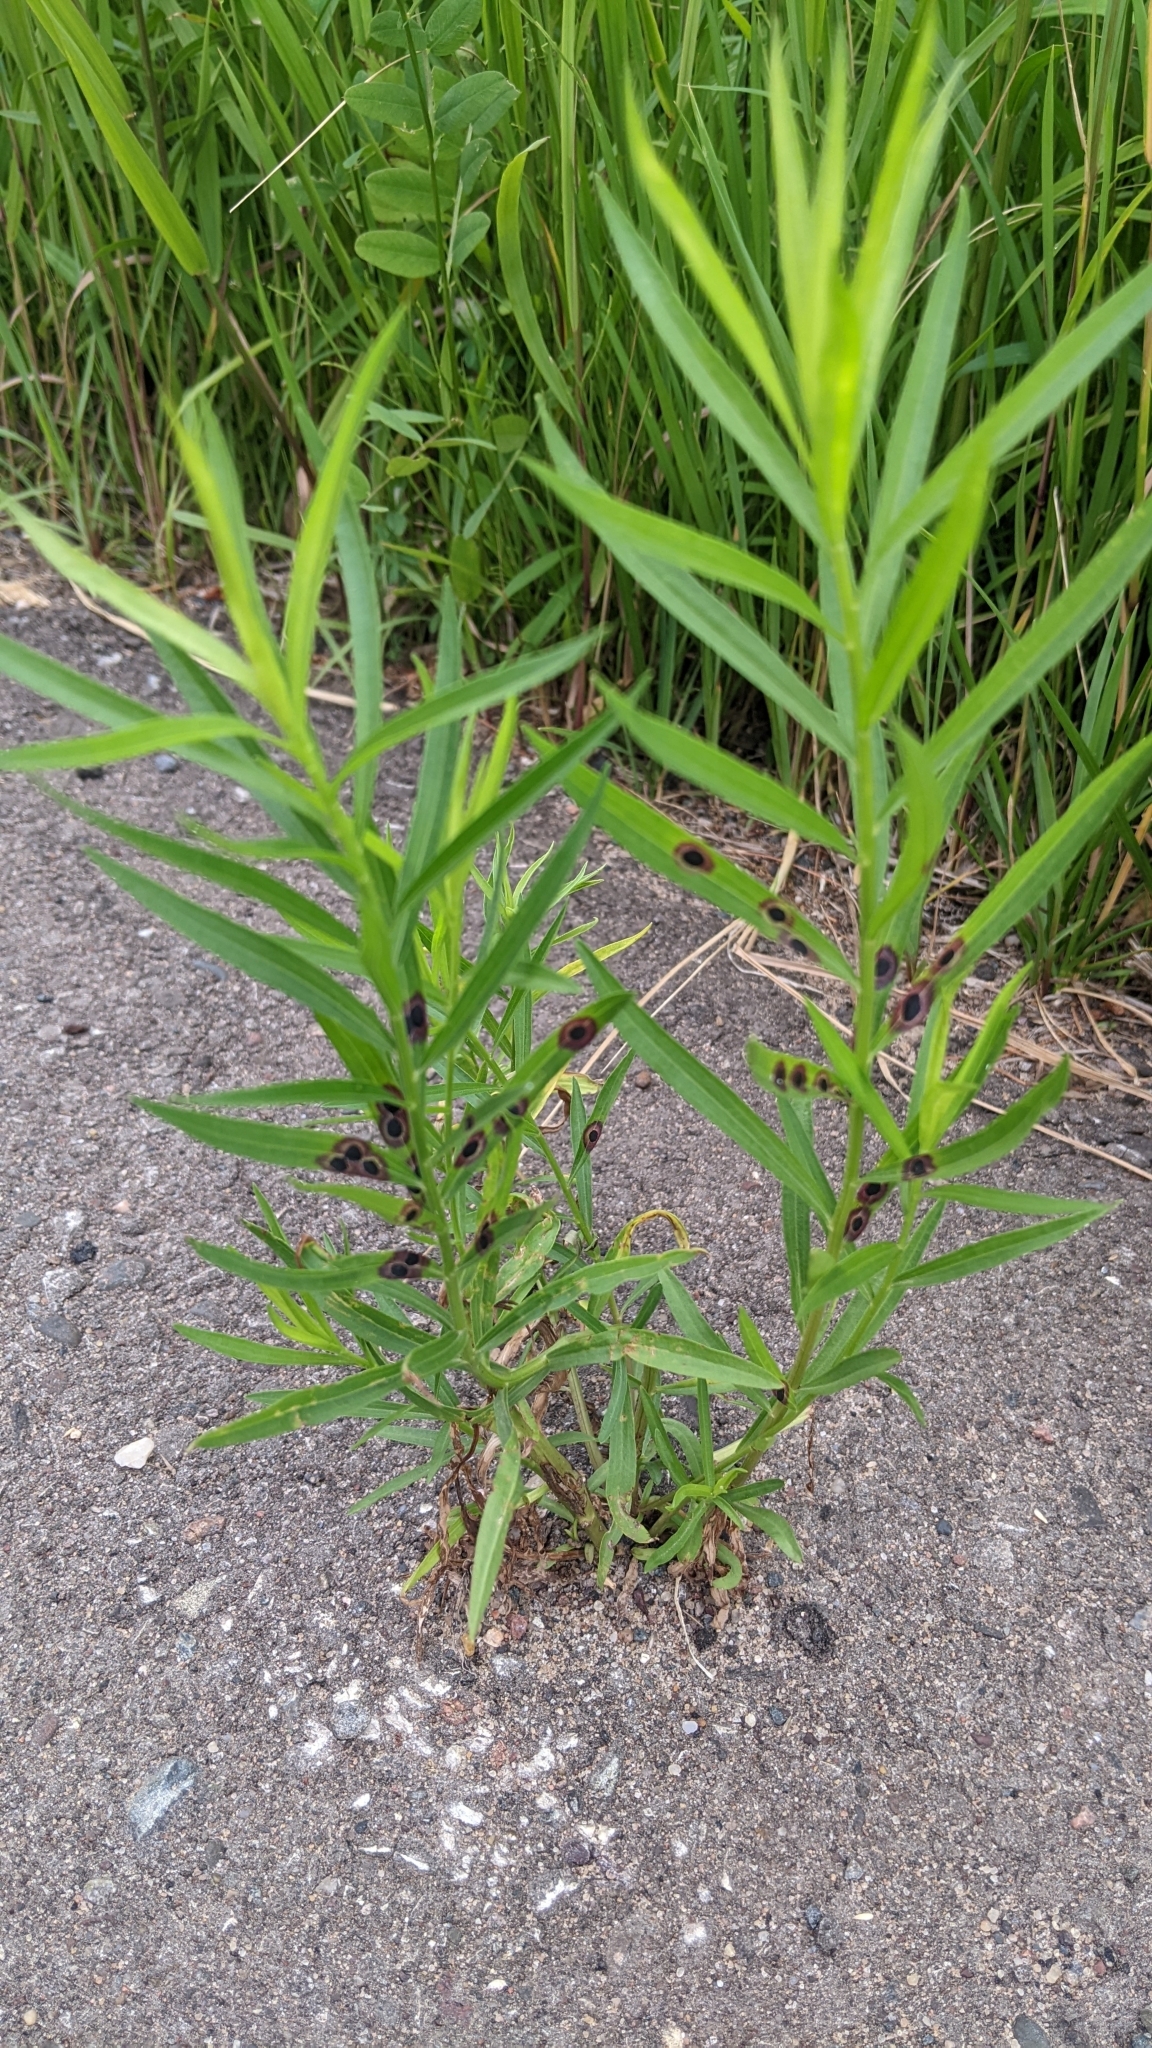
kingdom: Animalia
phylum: Arthropoda
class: Insecta
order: Diptera
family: Cecidomyiidae
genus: Asteromyia
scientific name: Asteromyia euthamiae
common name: Euthamia leaf gall midge
